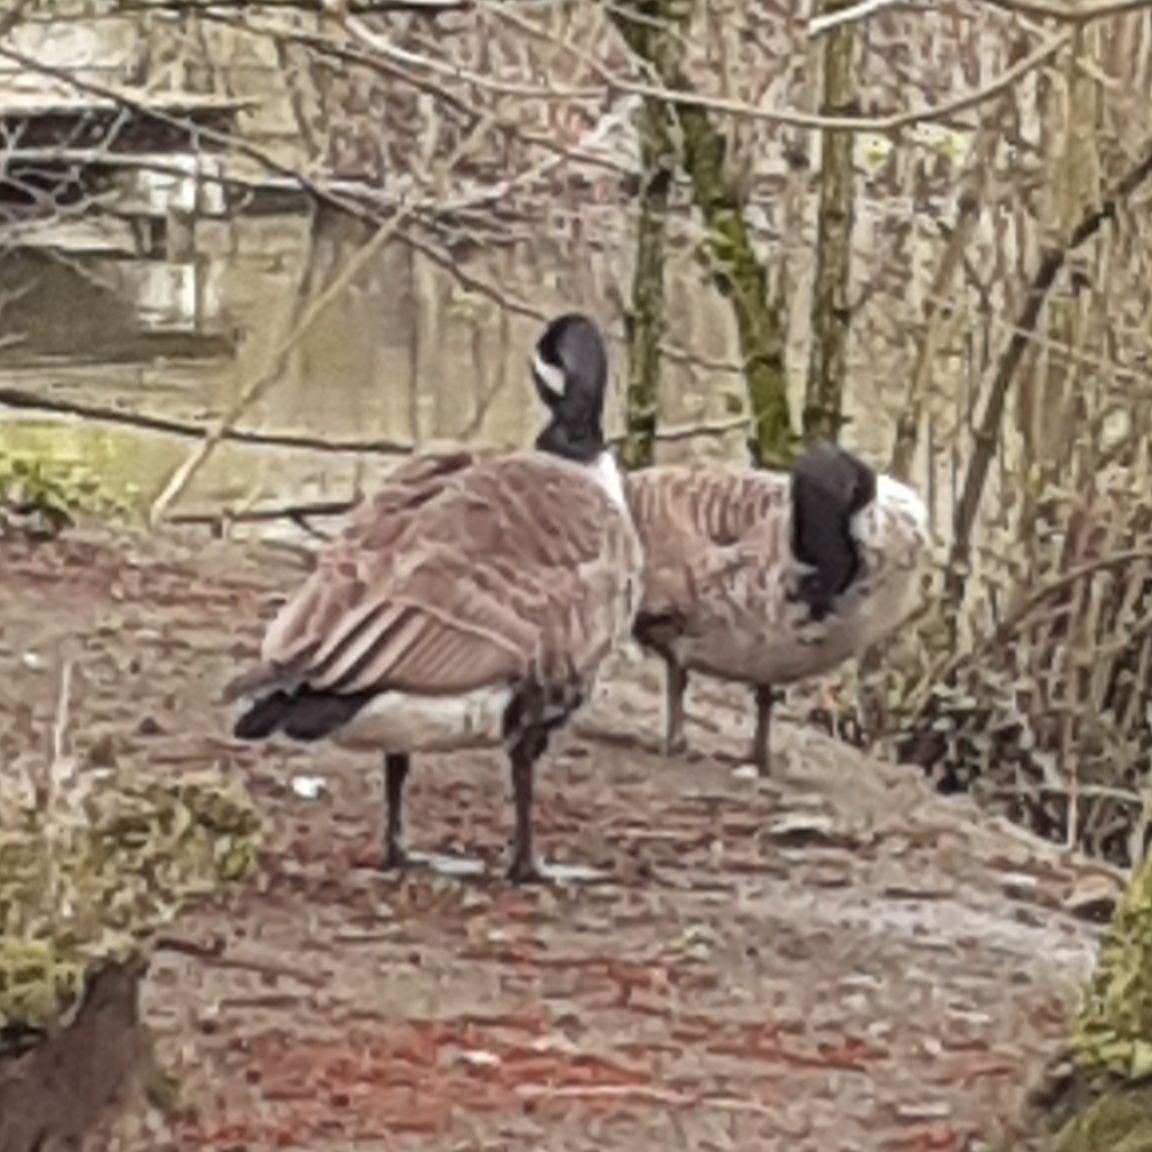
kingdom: Animalia
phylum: Chordata
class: Aves
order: Anseriformes
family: Anatidae
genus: Branta
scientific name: Branta canadensis
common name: Canada goose
